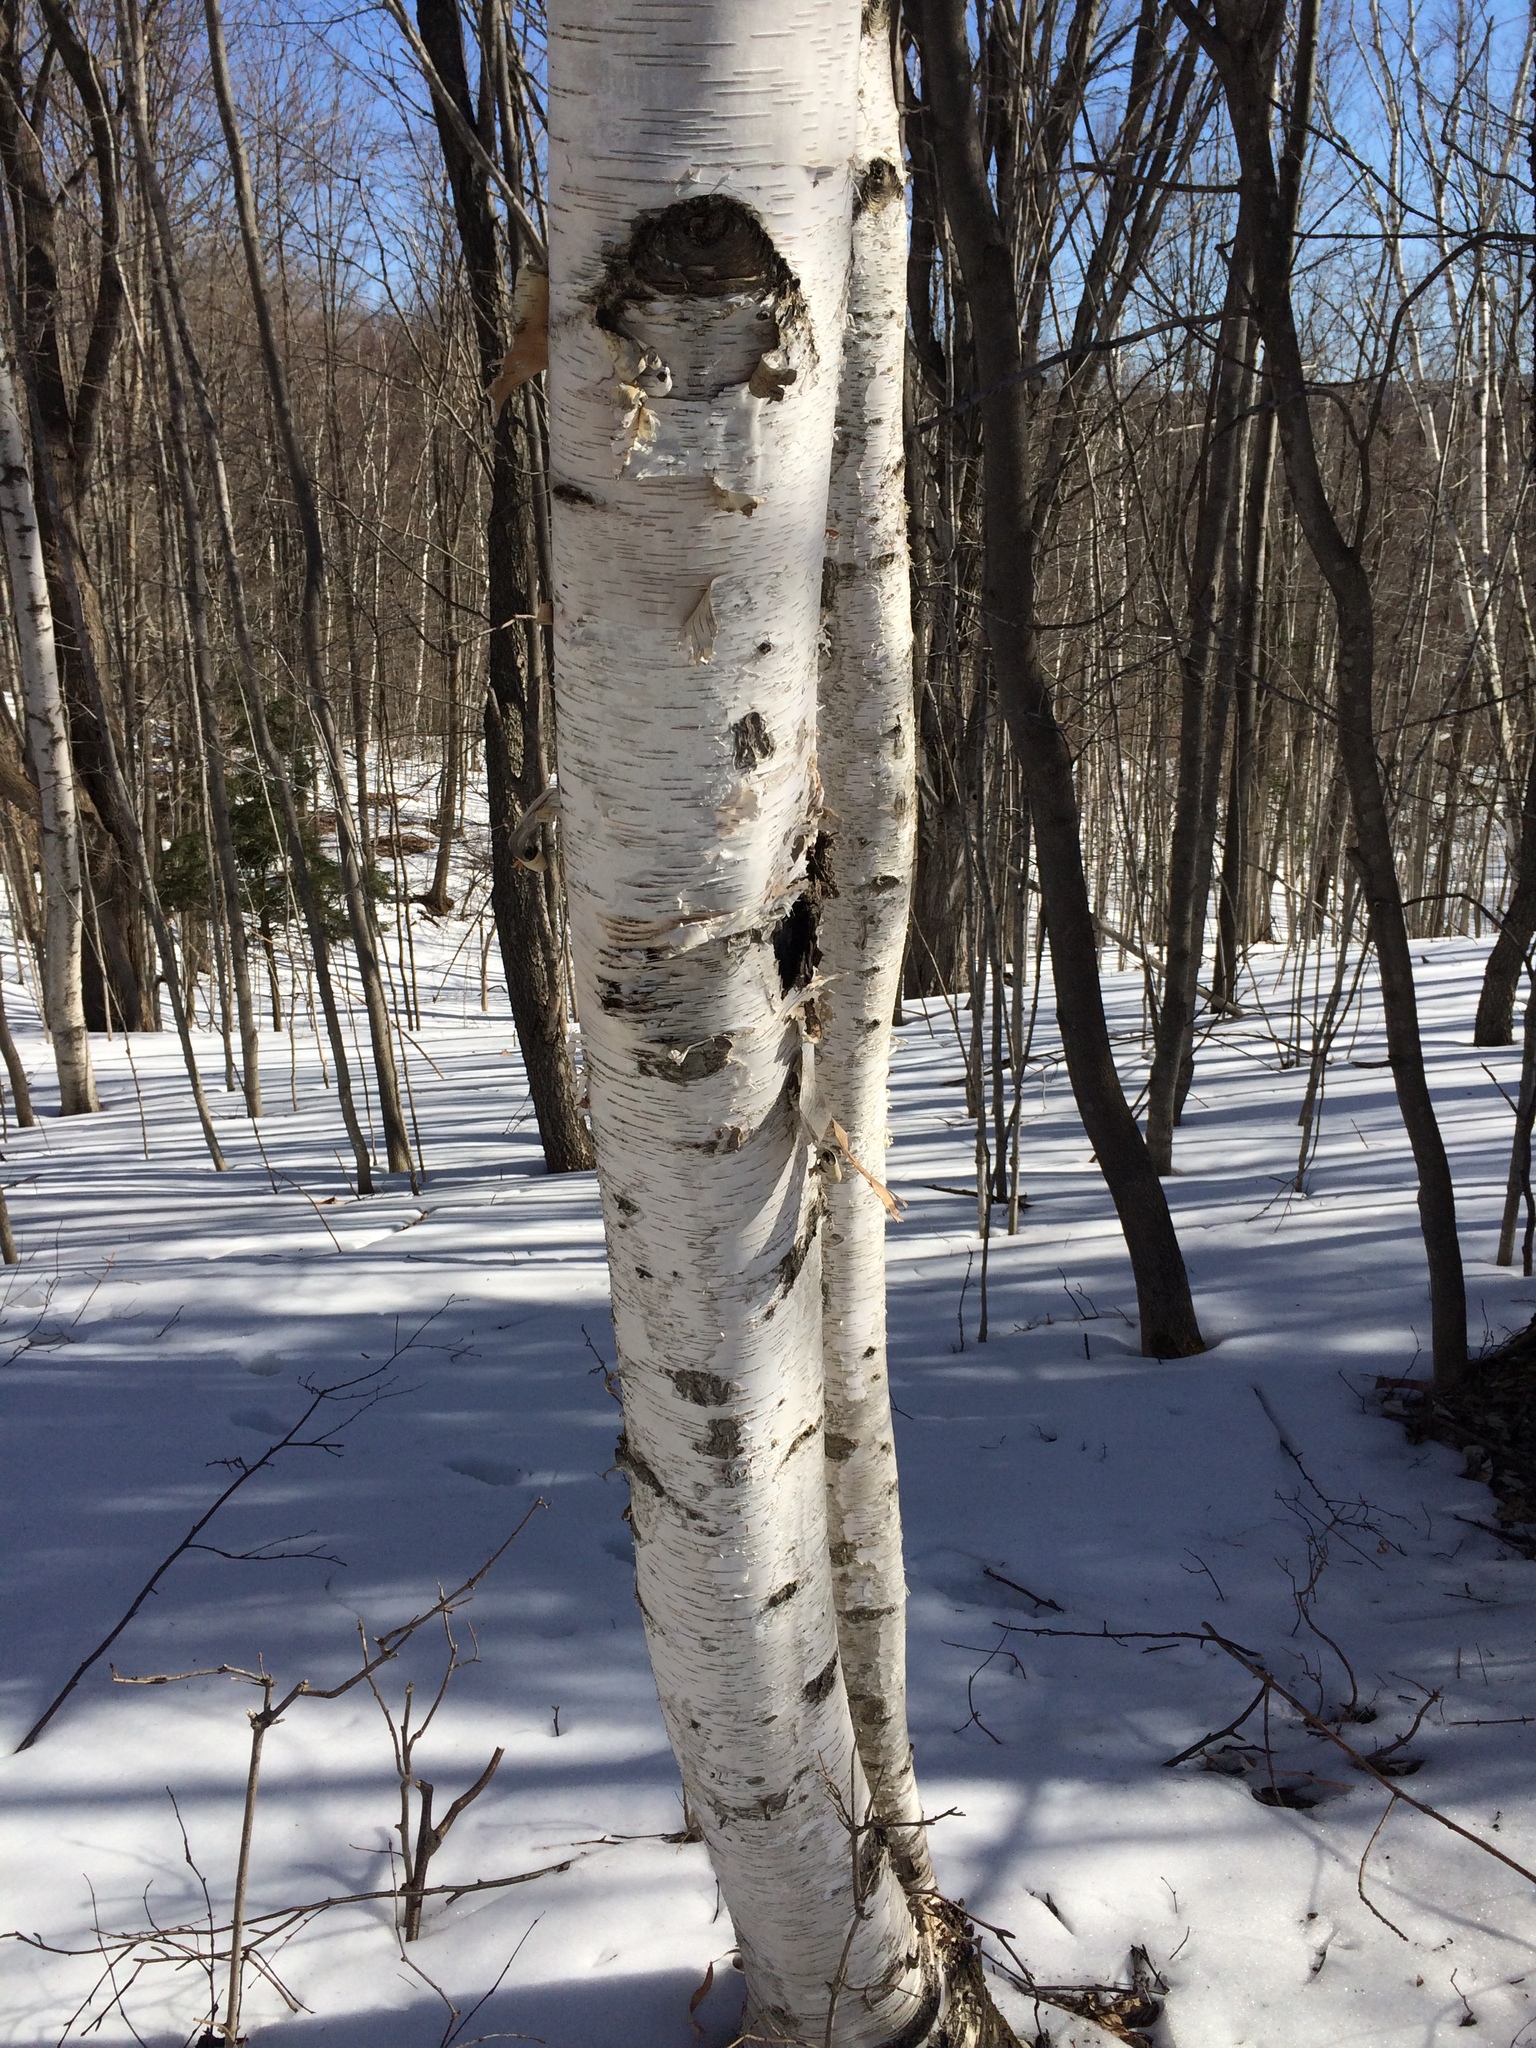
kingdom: Plantae
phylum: Tracheophyta
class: Magnoliopsida
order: Fagales
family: Betulaceae
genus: Betula
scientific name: Betula papyrifera
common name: Paper birch
